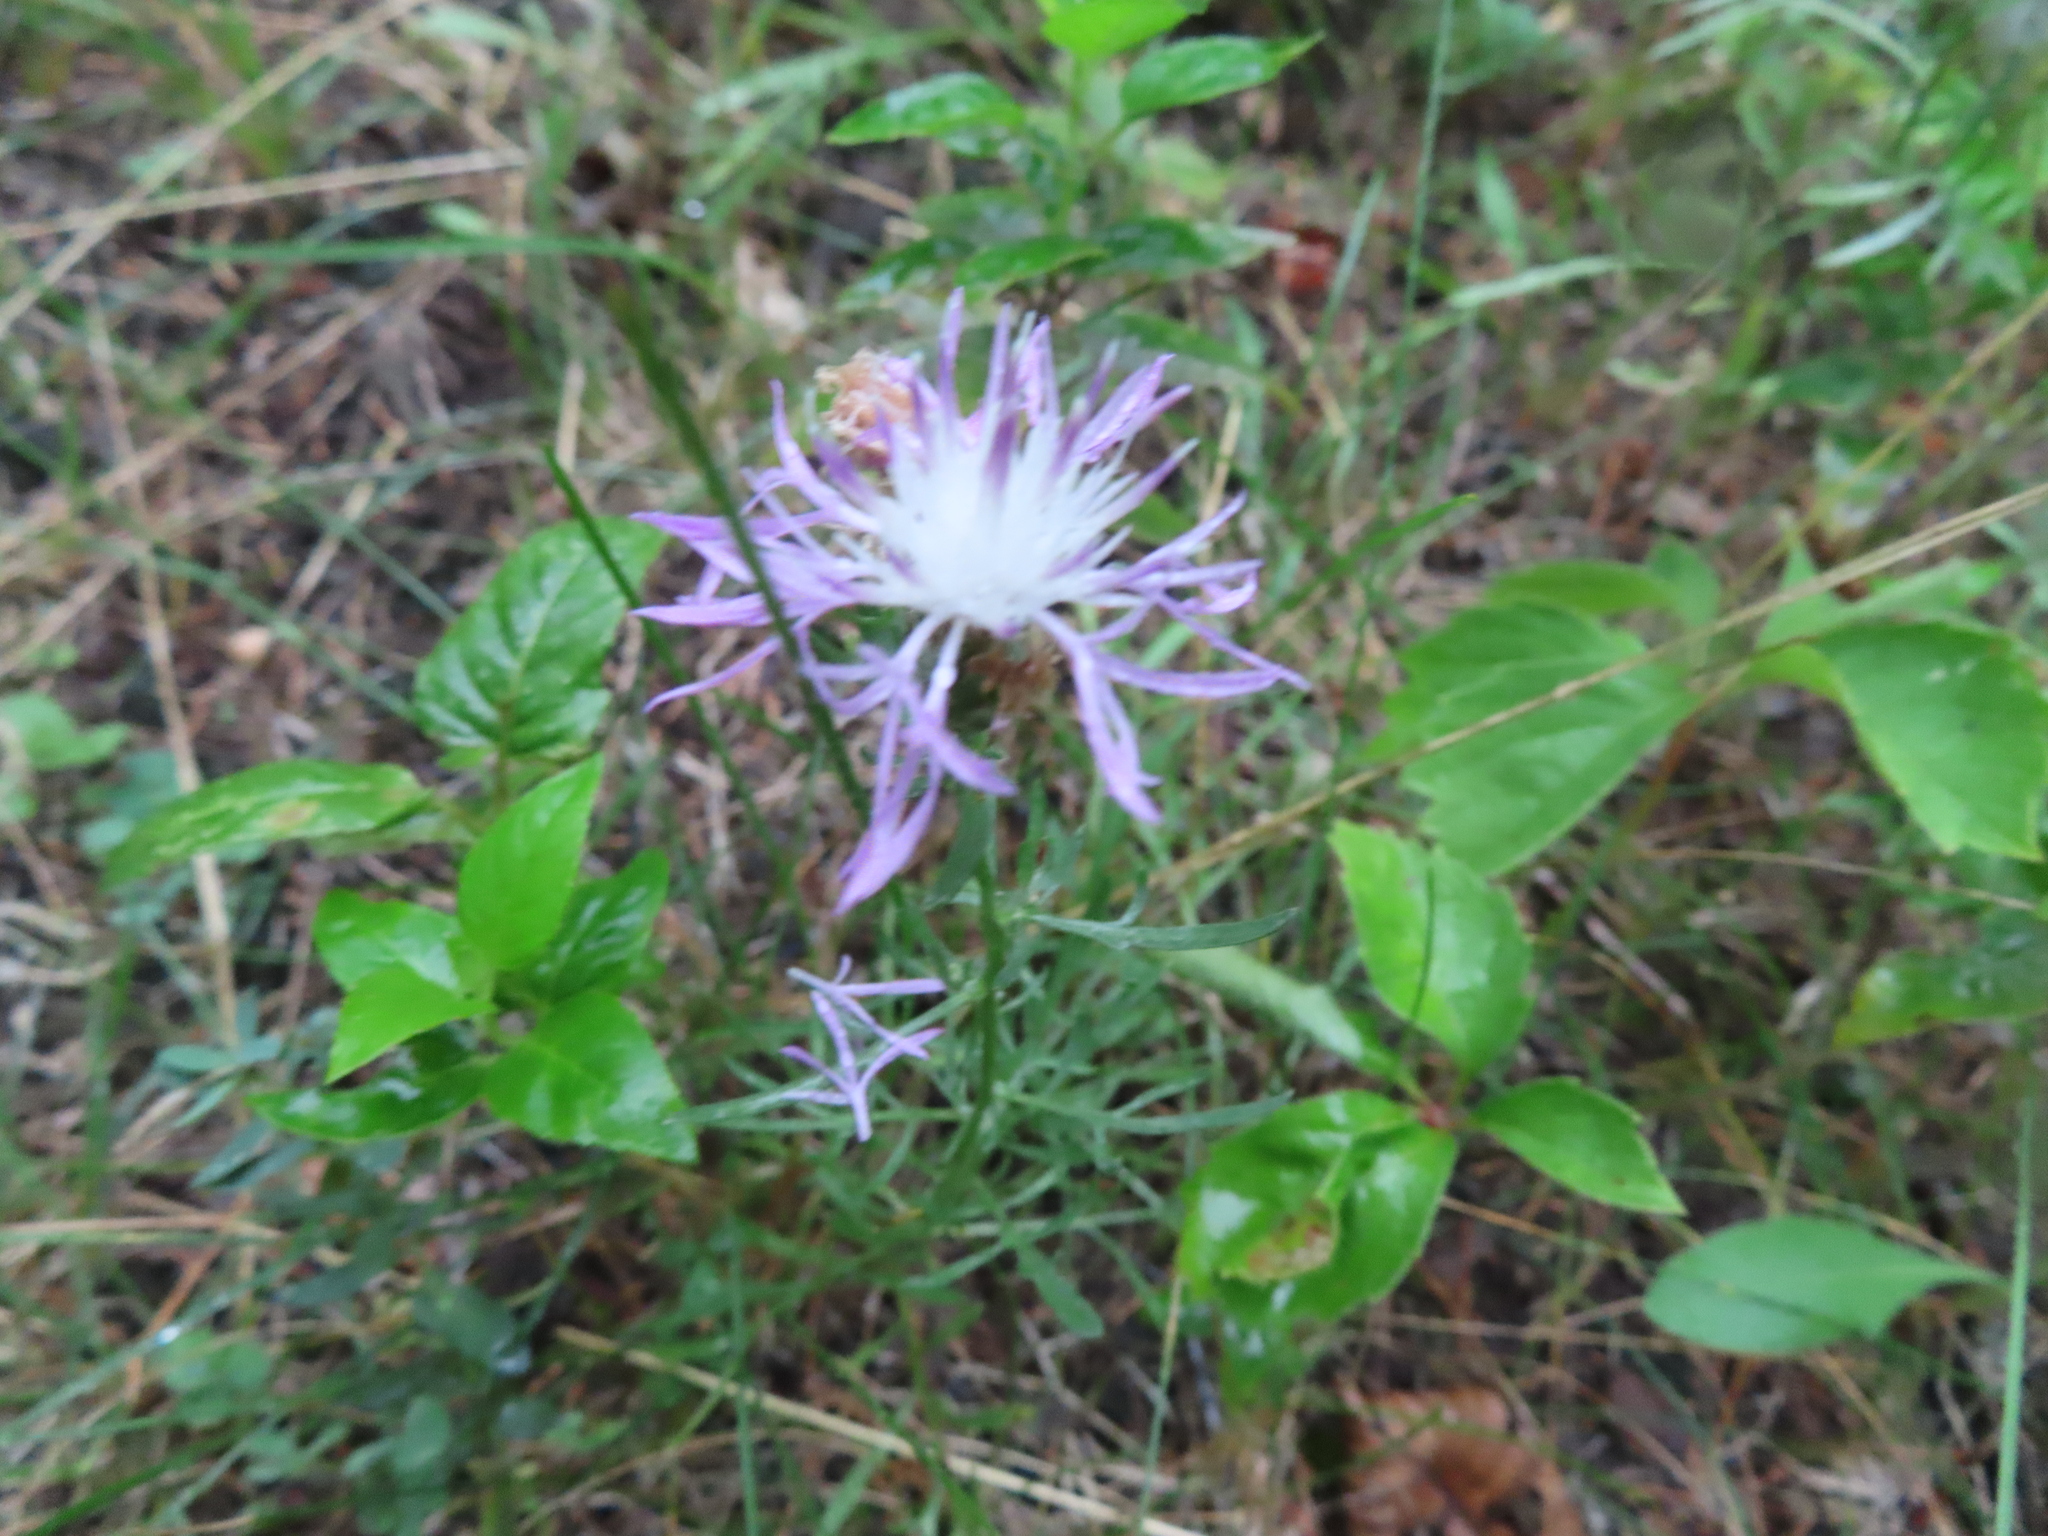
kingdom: Plantae
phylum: Tracheophyta
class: Magnoliopsida
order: Asterales
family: Asteraceae
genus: Centaurea
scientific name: Centaurea stoebe
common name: Spotted knapweed
